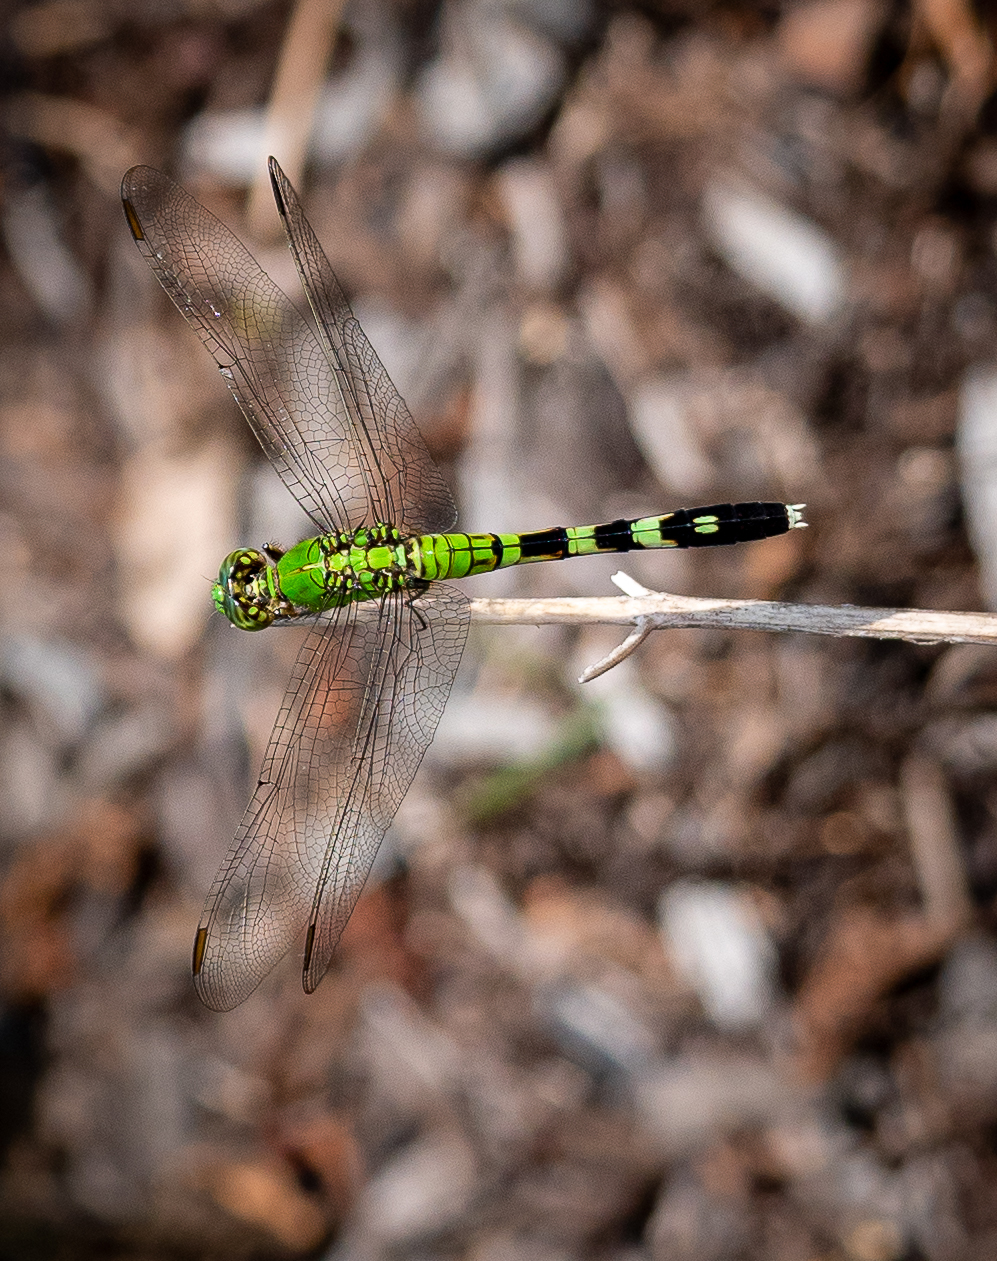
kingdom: Animalia
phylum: Arthropoda
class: Insecta
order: Odonata
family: Libellulidae
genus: Erythemis
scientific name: Erythemis simplicicollis
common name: Eastern pondhawk
